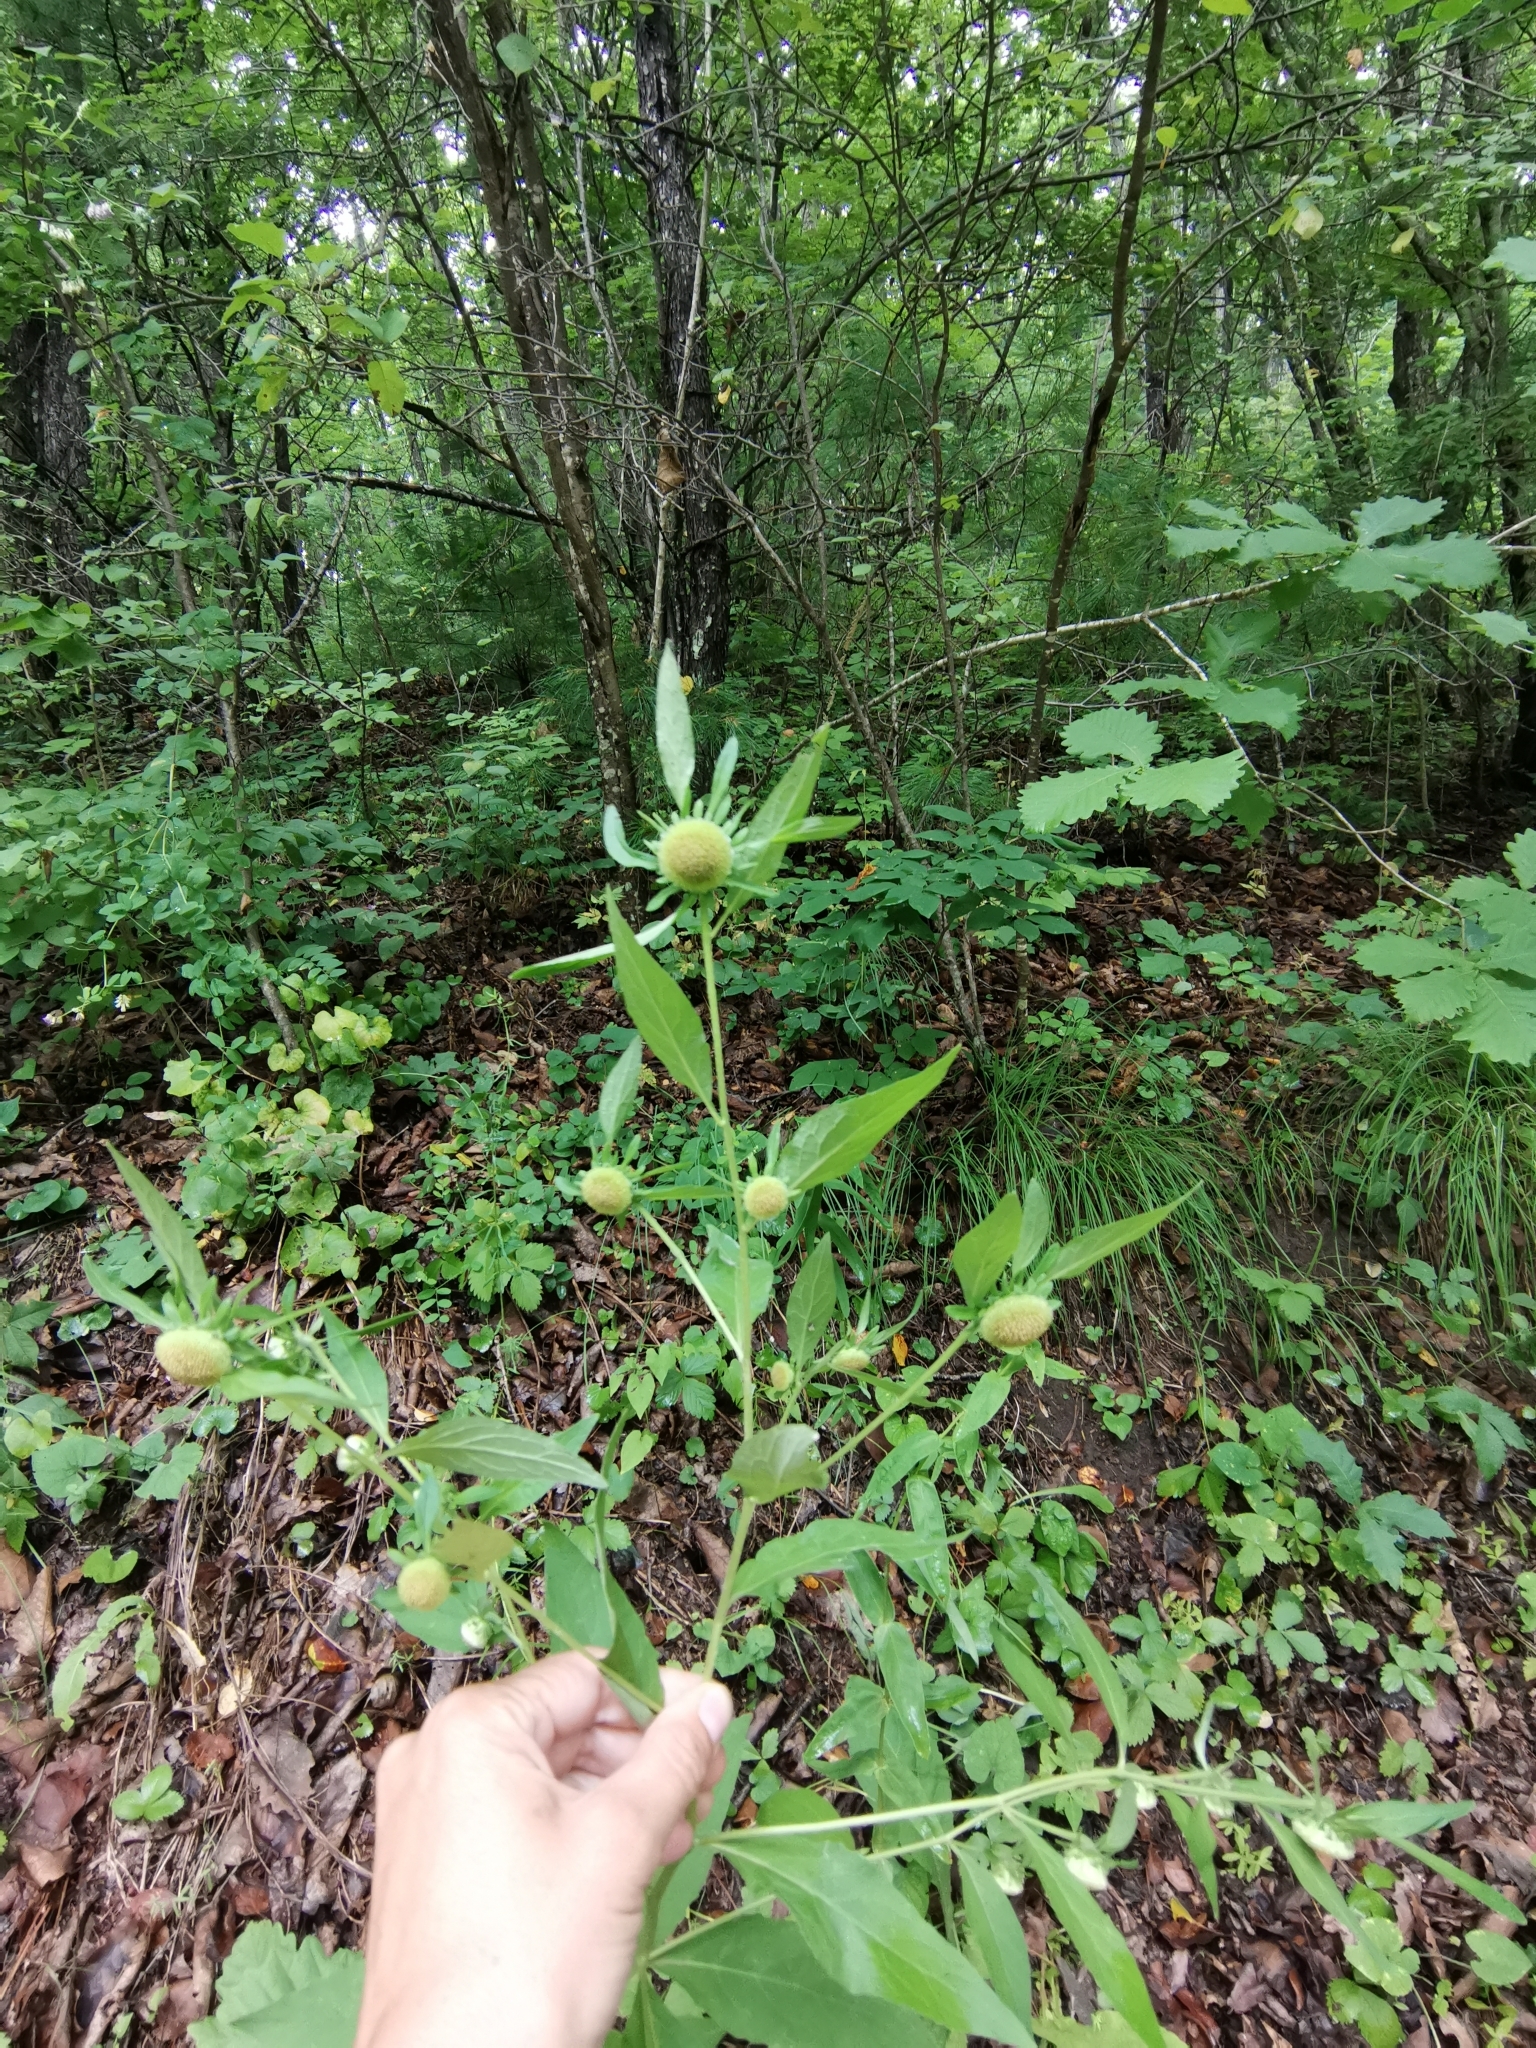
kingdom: Plantae
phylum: Tracheophyta
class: Magnoliopsida
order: Asterales
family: Asteraceae
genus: Carpesium
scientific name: Carpesium cernuum
